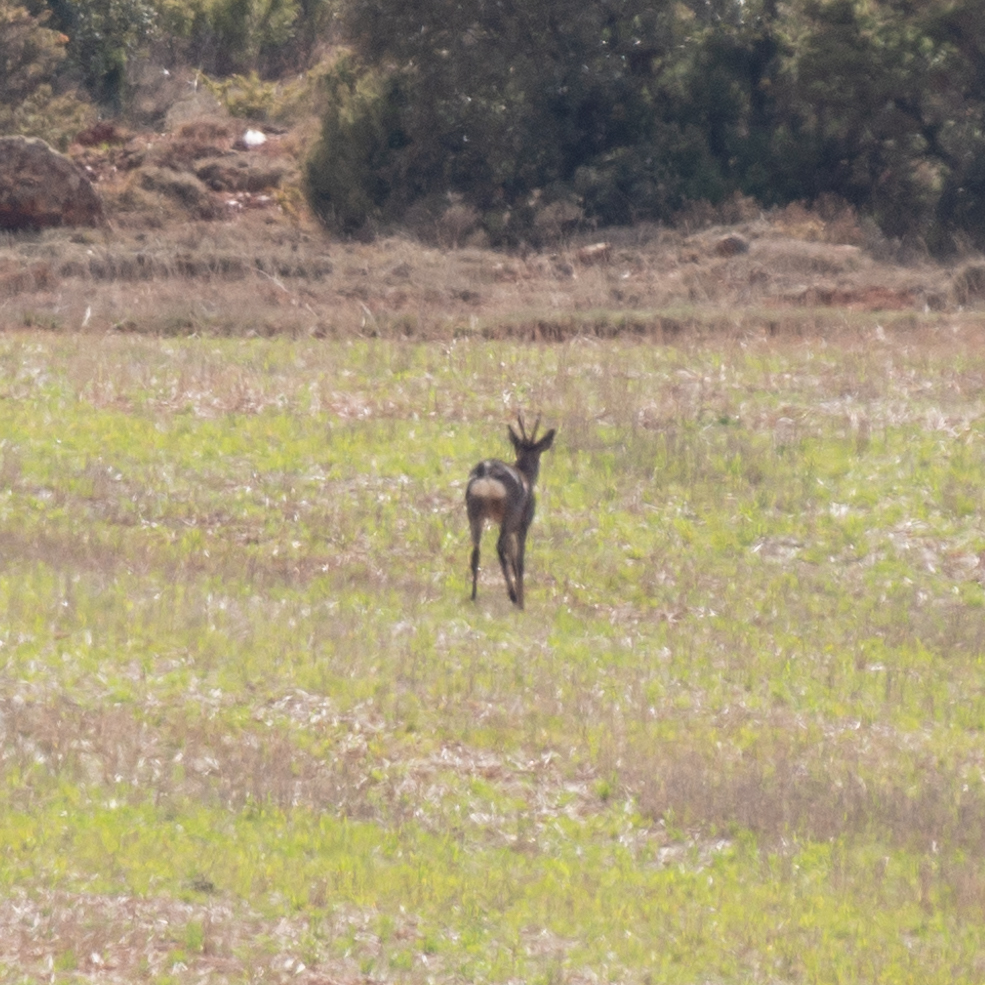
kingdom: Animalia
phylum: Chordata
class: Mammalia
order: Artiodactyla
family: Cervidae
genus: Capreolus
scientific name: Capreolus capreolus
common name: Western roe deer
